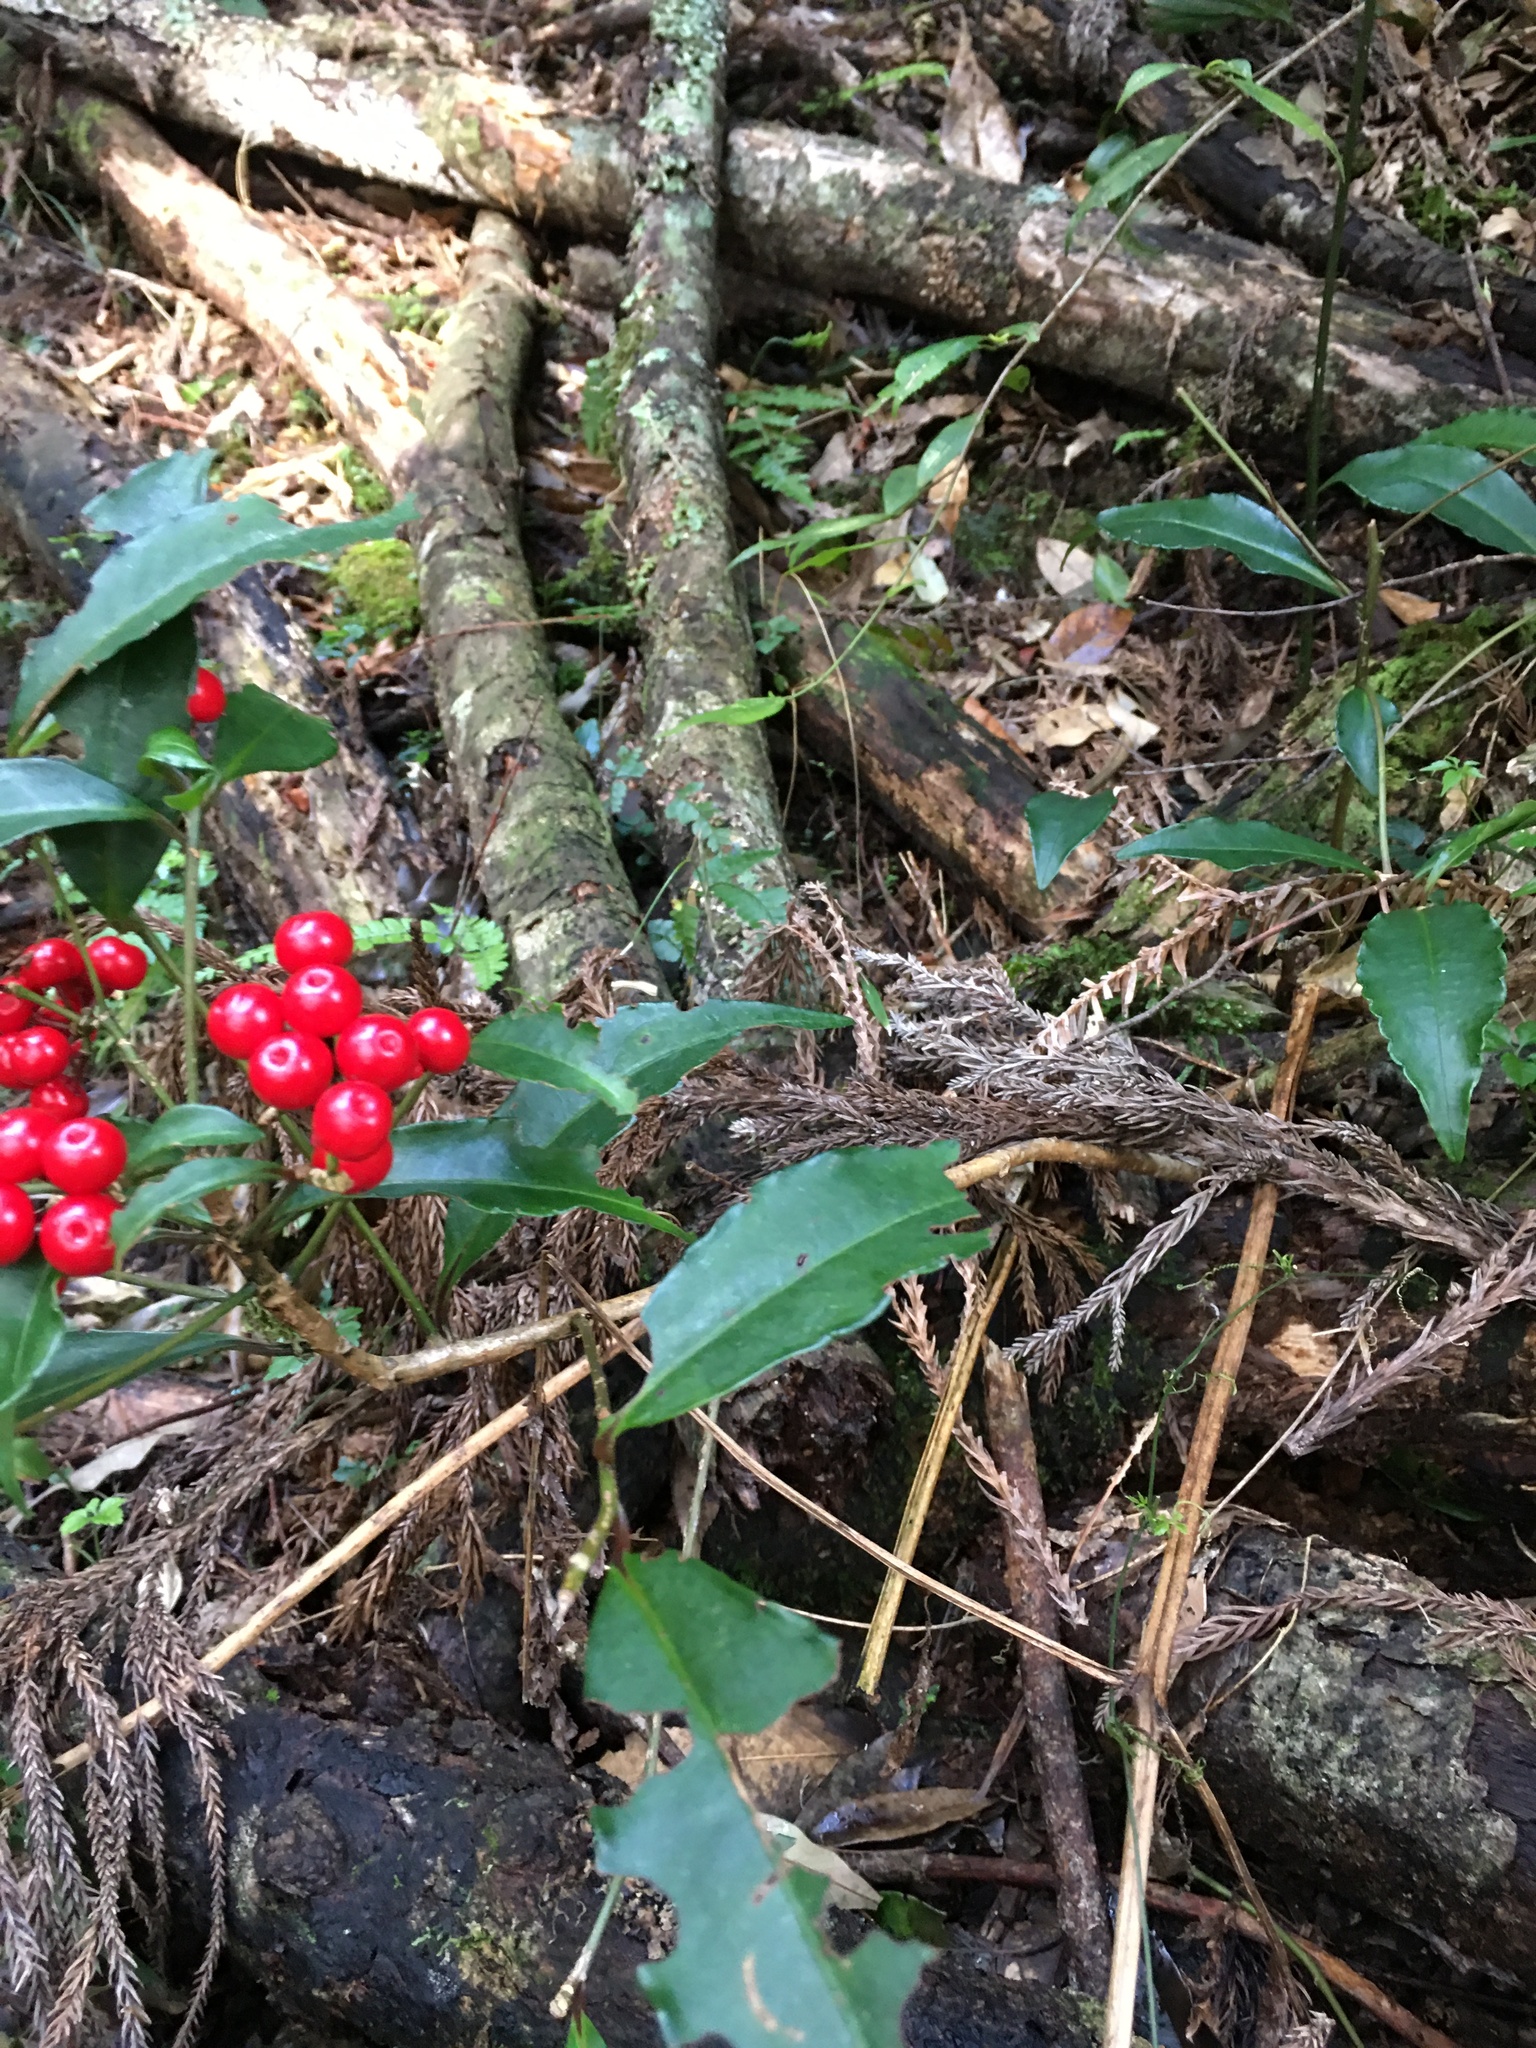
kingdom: Plantae
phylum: Tracheophyta
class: Magnoliopsida
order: Ericales
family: Primulaceae
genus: Ardisia
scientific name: Ardisia crenata
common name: Hen's eyes
